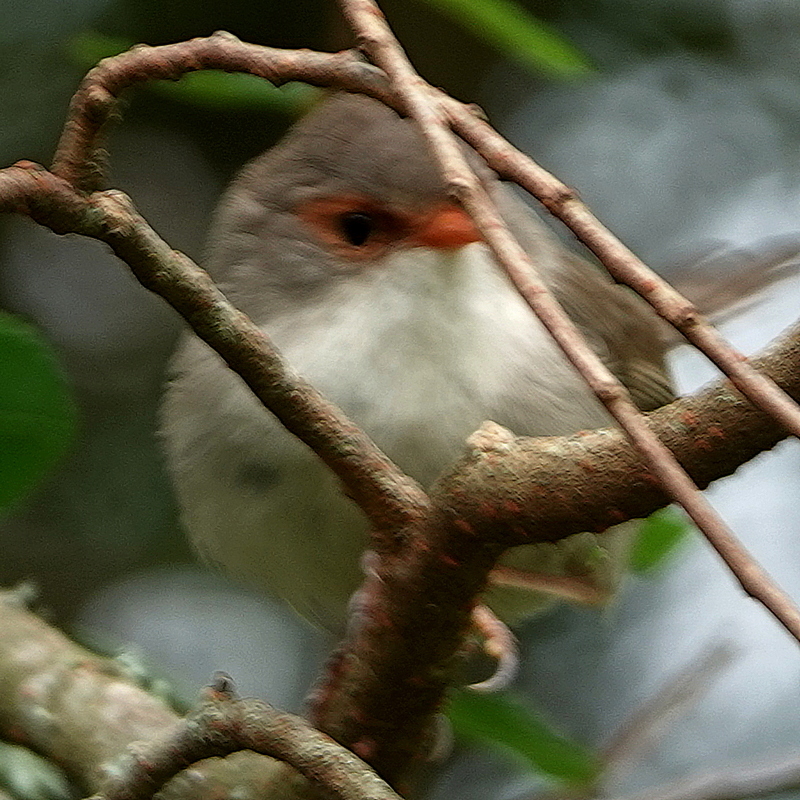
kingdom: Animalia
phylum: Chordata
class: Aves
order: Passeriformes
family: Maluridae
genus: Malurus
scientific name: Malurus cyaneus
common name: Superb fairywren
